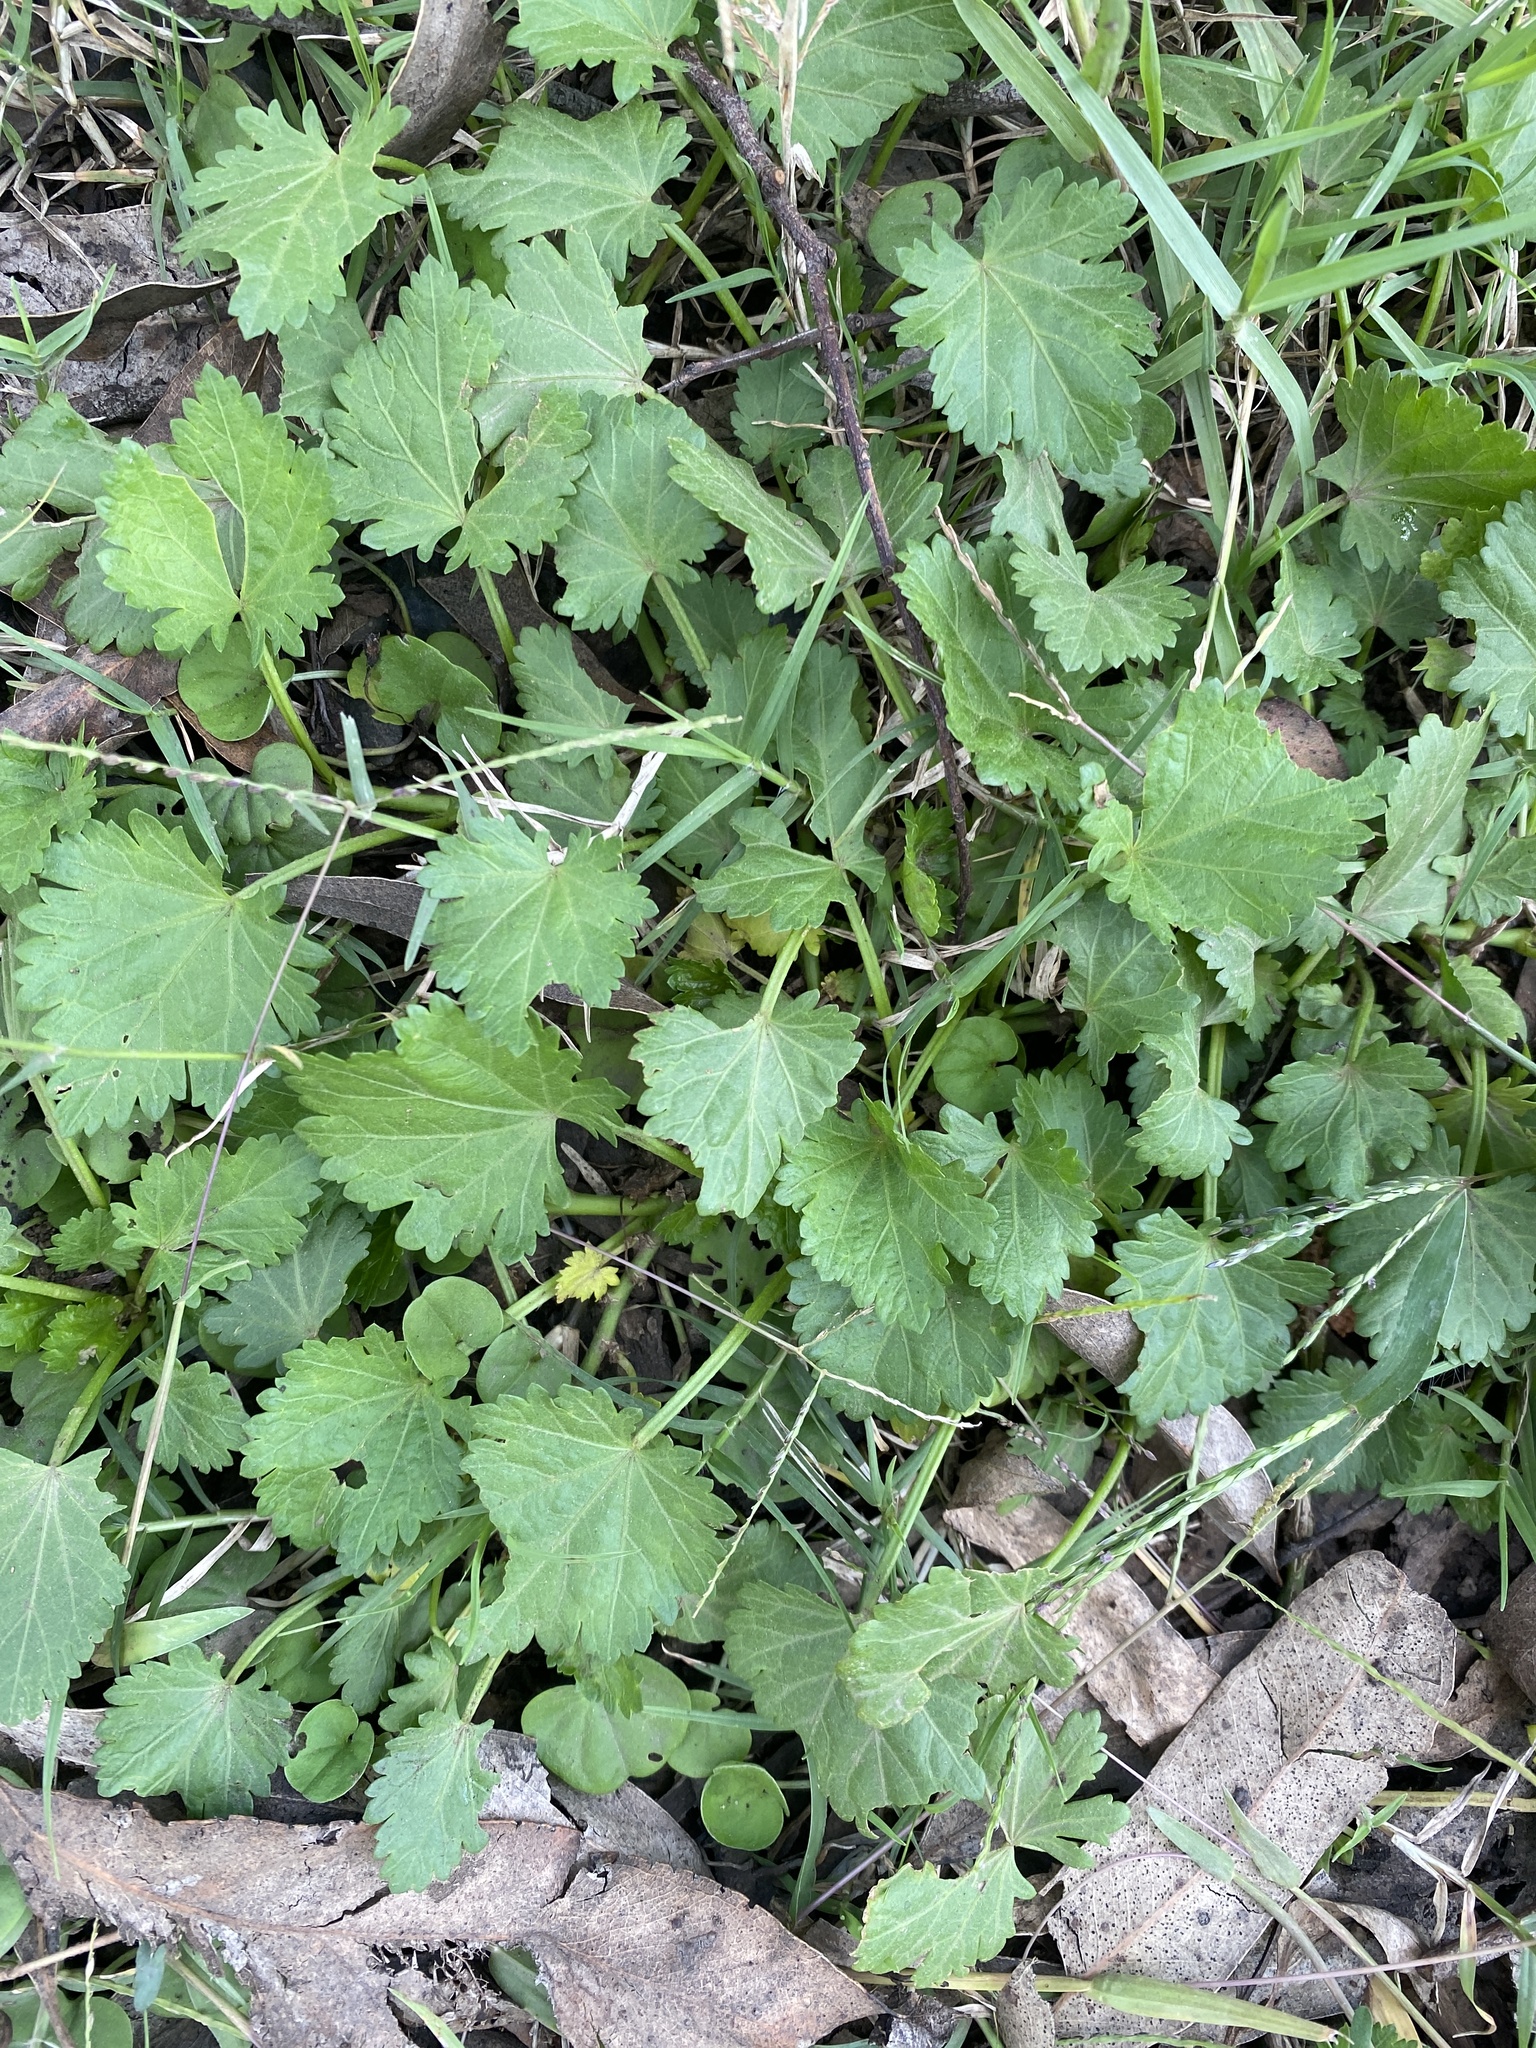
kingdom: Plantae
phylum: Tracheophyta
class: Magnoliopsida
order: Malvales
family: Malvaceae
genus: Modiola
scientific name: Modiola caroliniana
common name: Carolina bristlemallow
